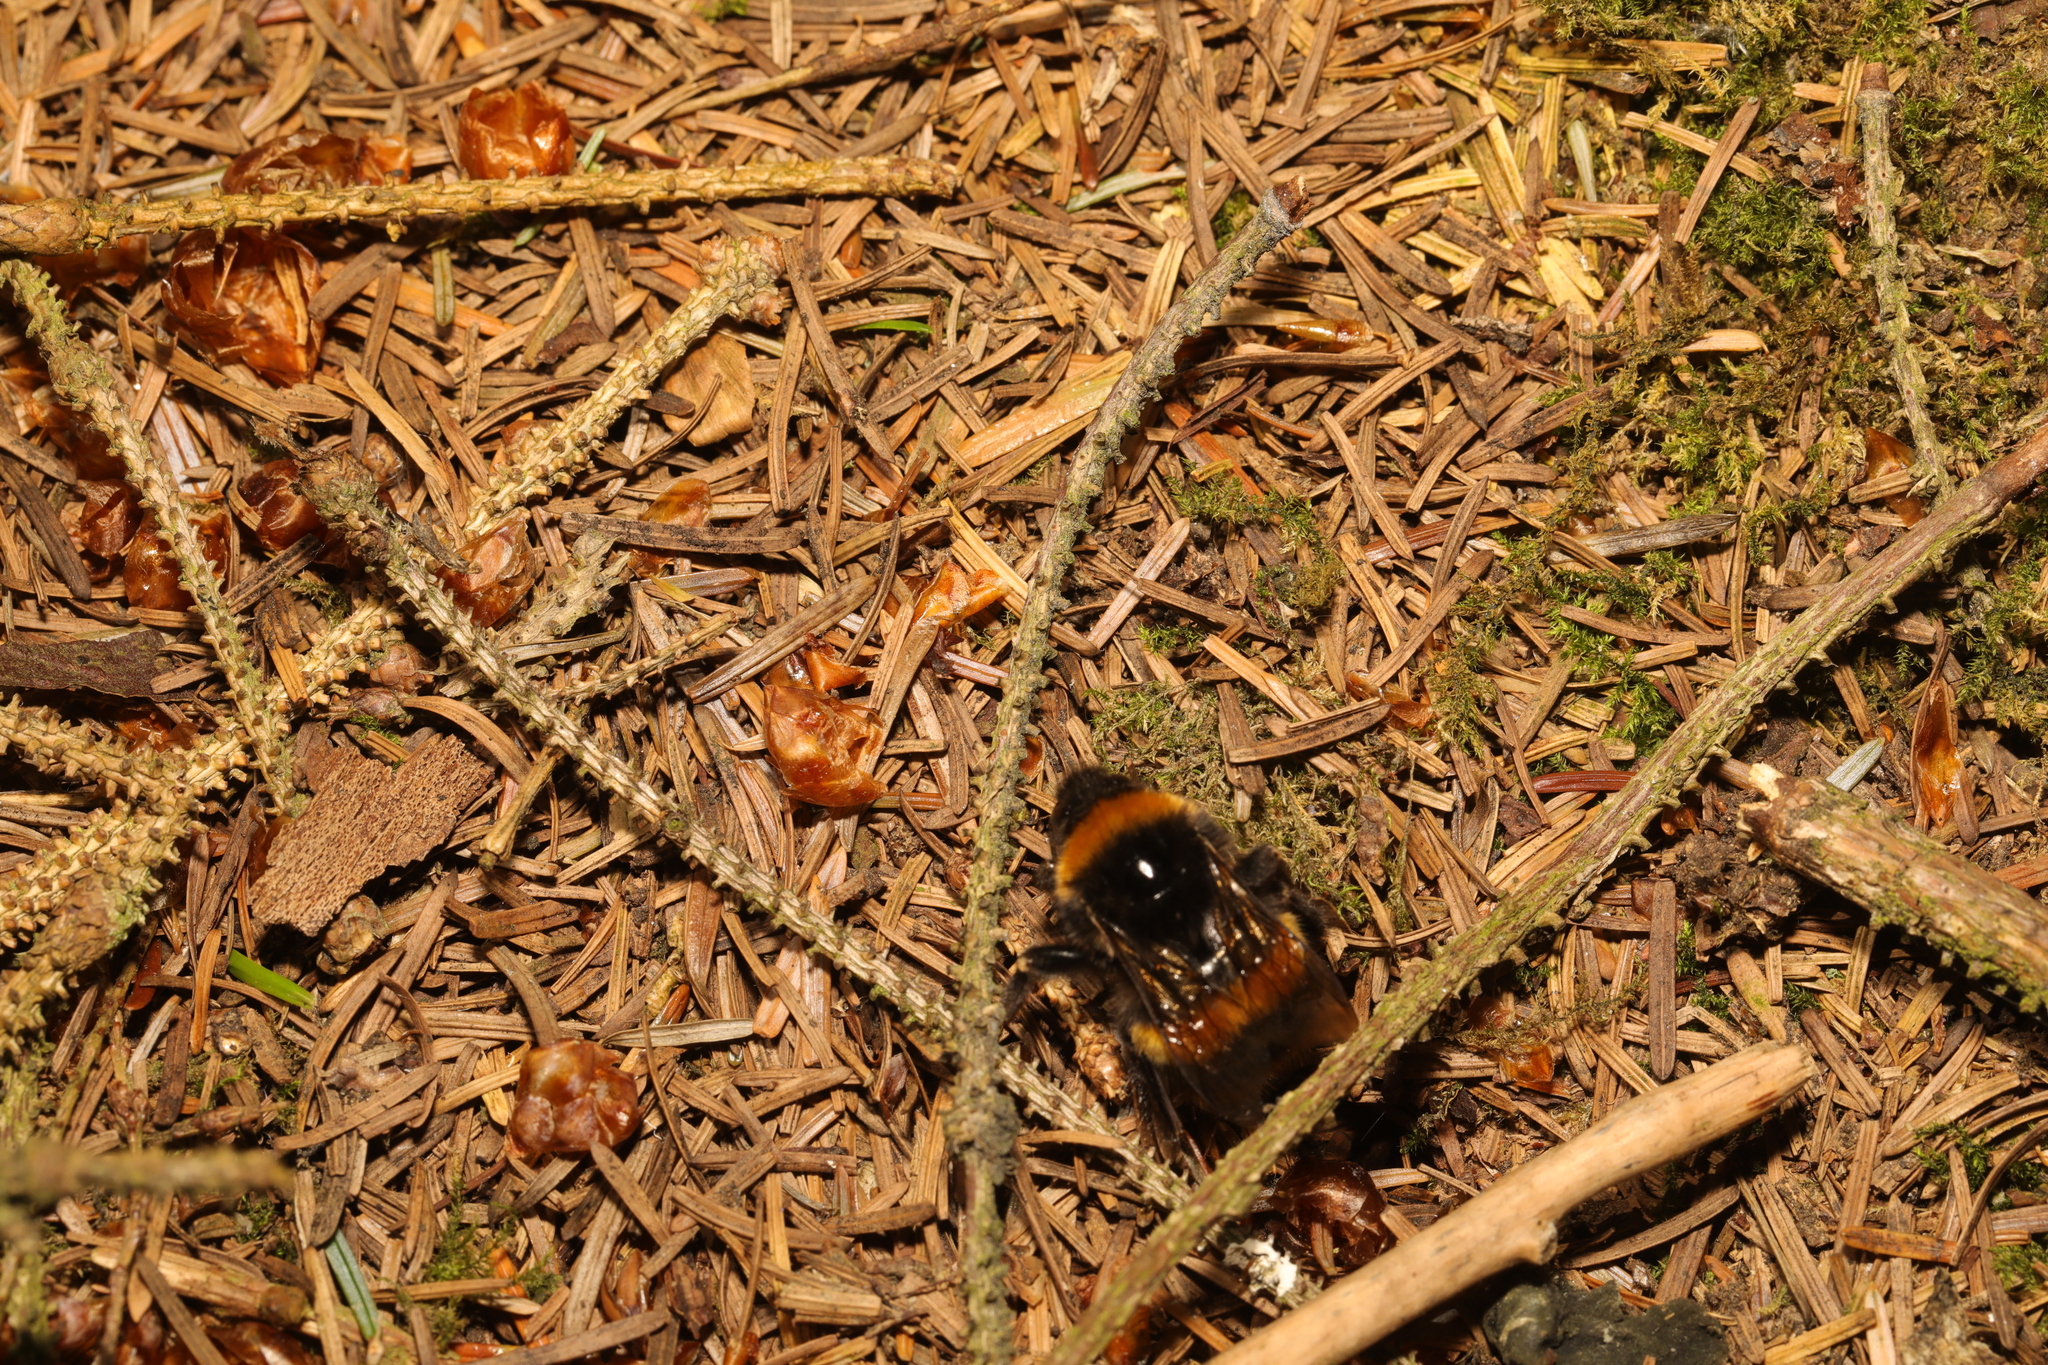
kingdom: Animalia
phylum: Arthropoda
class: Insecta
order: Hymenoptera
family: Apidae
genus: Bombus
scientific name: Bombus terrestris
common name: Buff-tailed bumblebee
